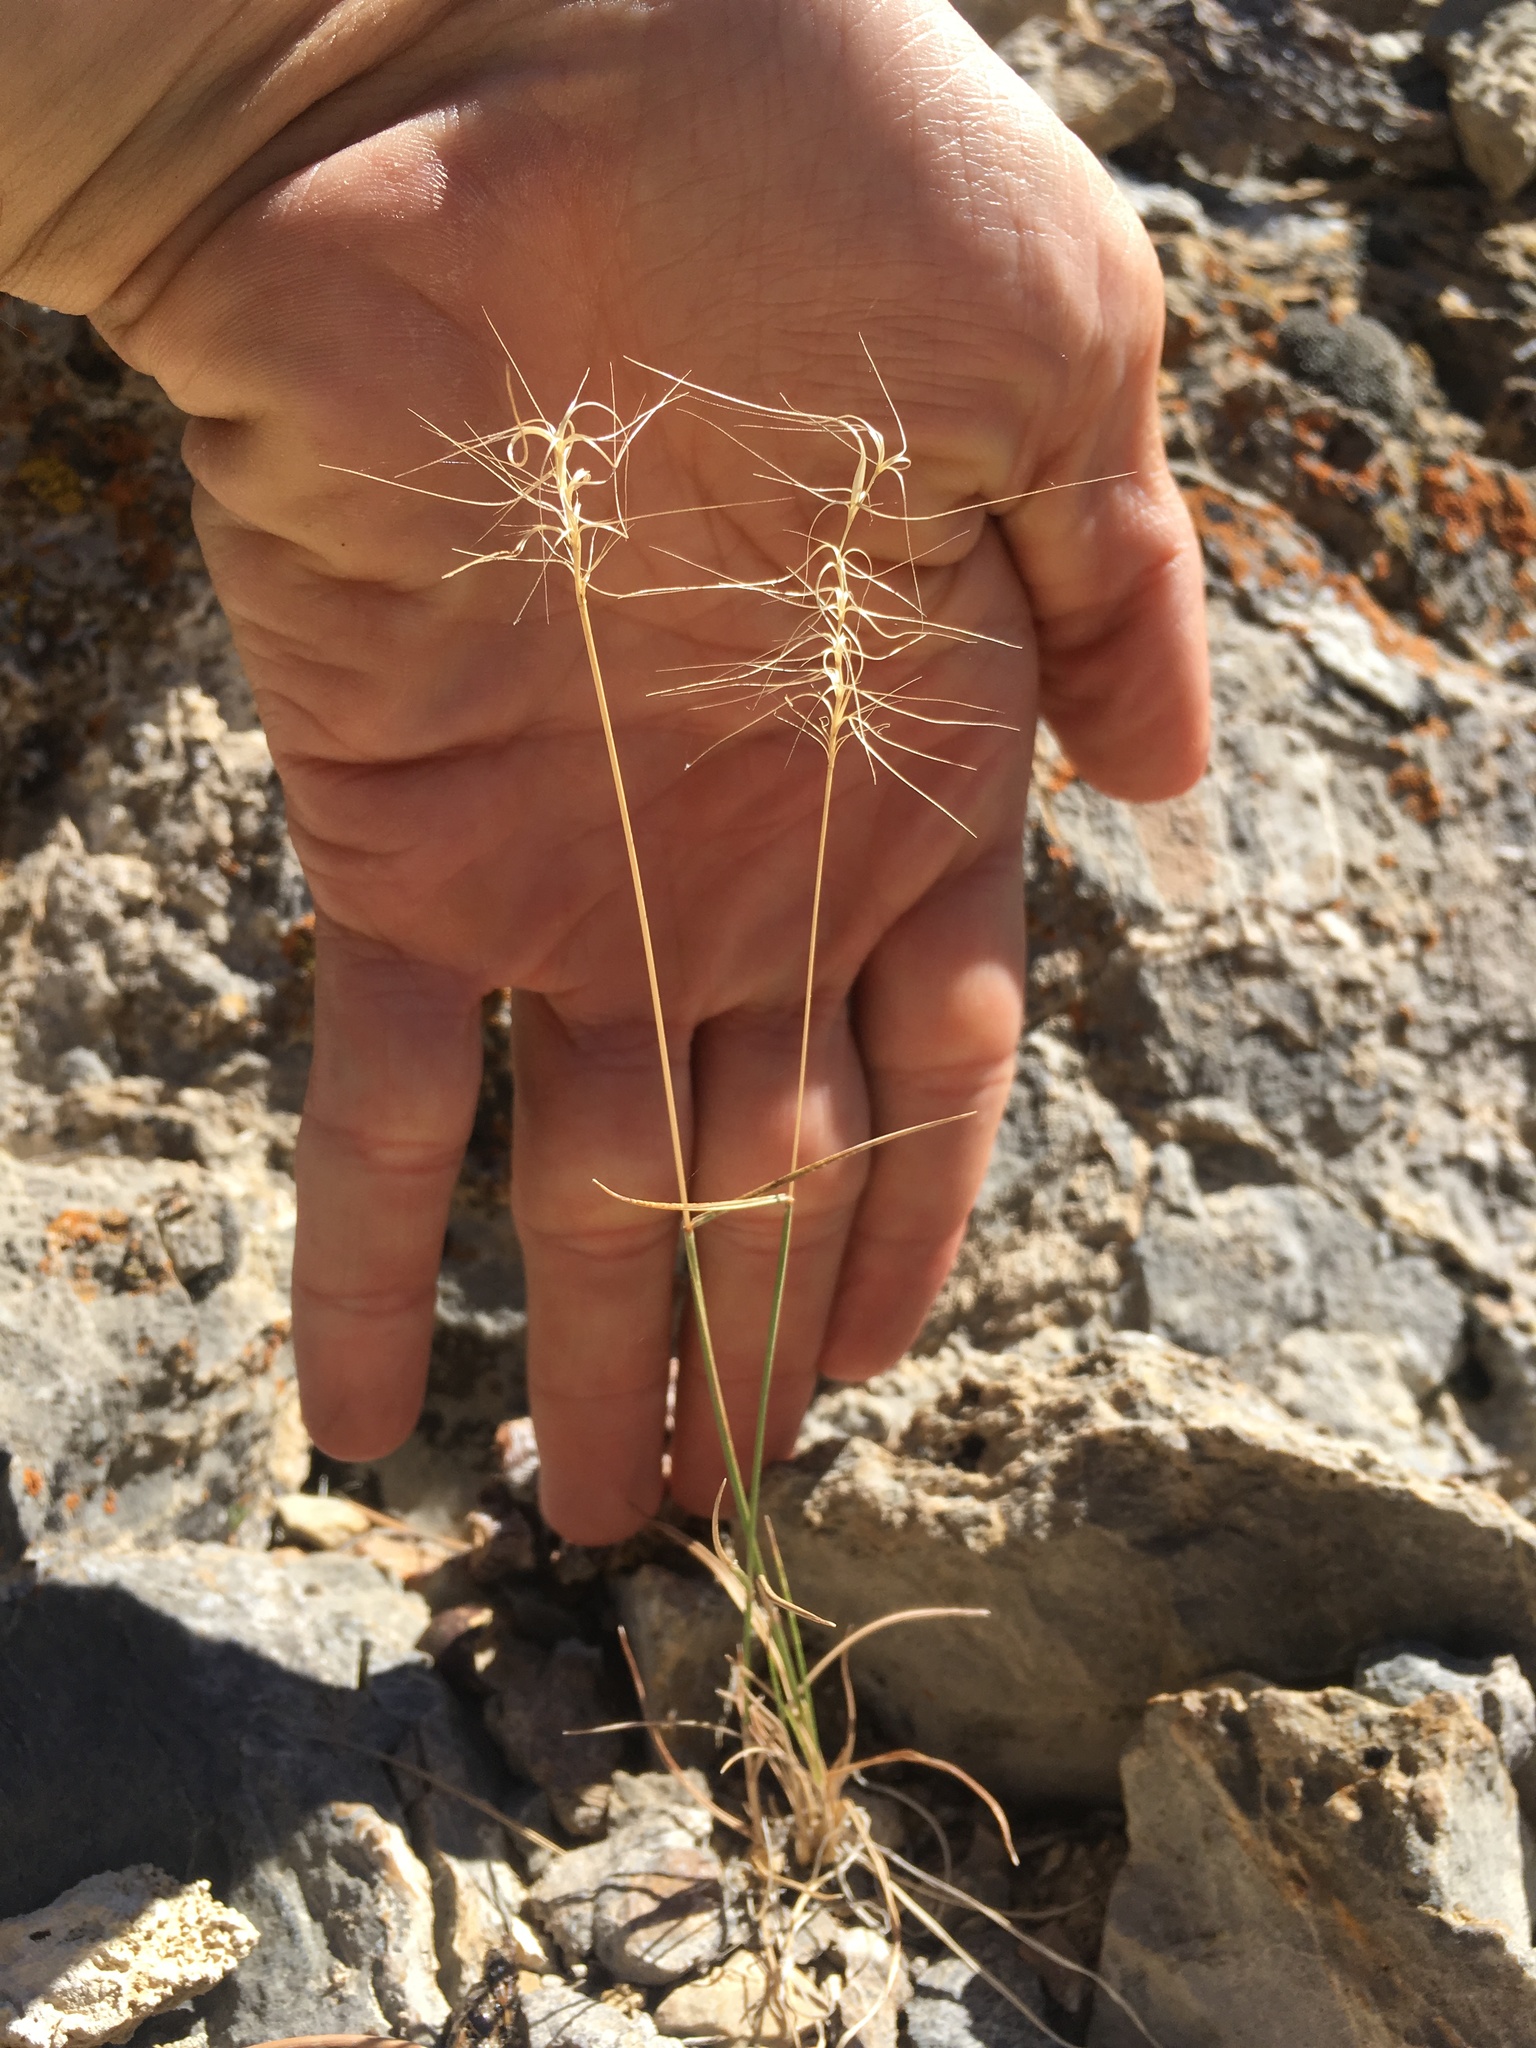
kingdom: Plantae
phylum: Tracheophyta
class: Liliopsida
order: Poales
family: Poaceae
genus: Elymus
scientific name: Elymus elymoides
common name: Bottlebrush squirreltail
